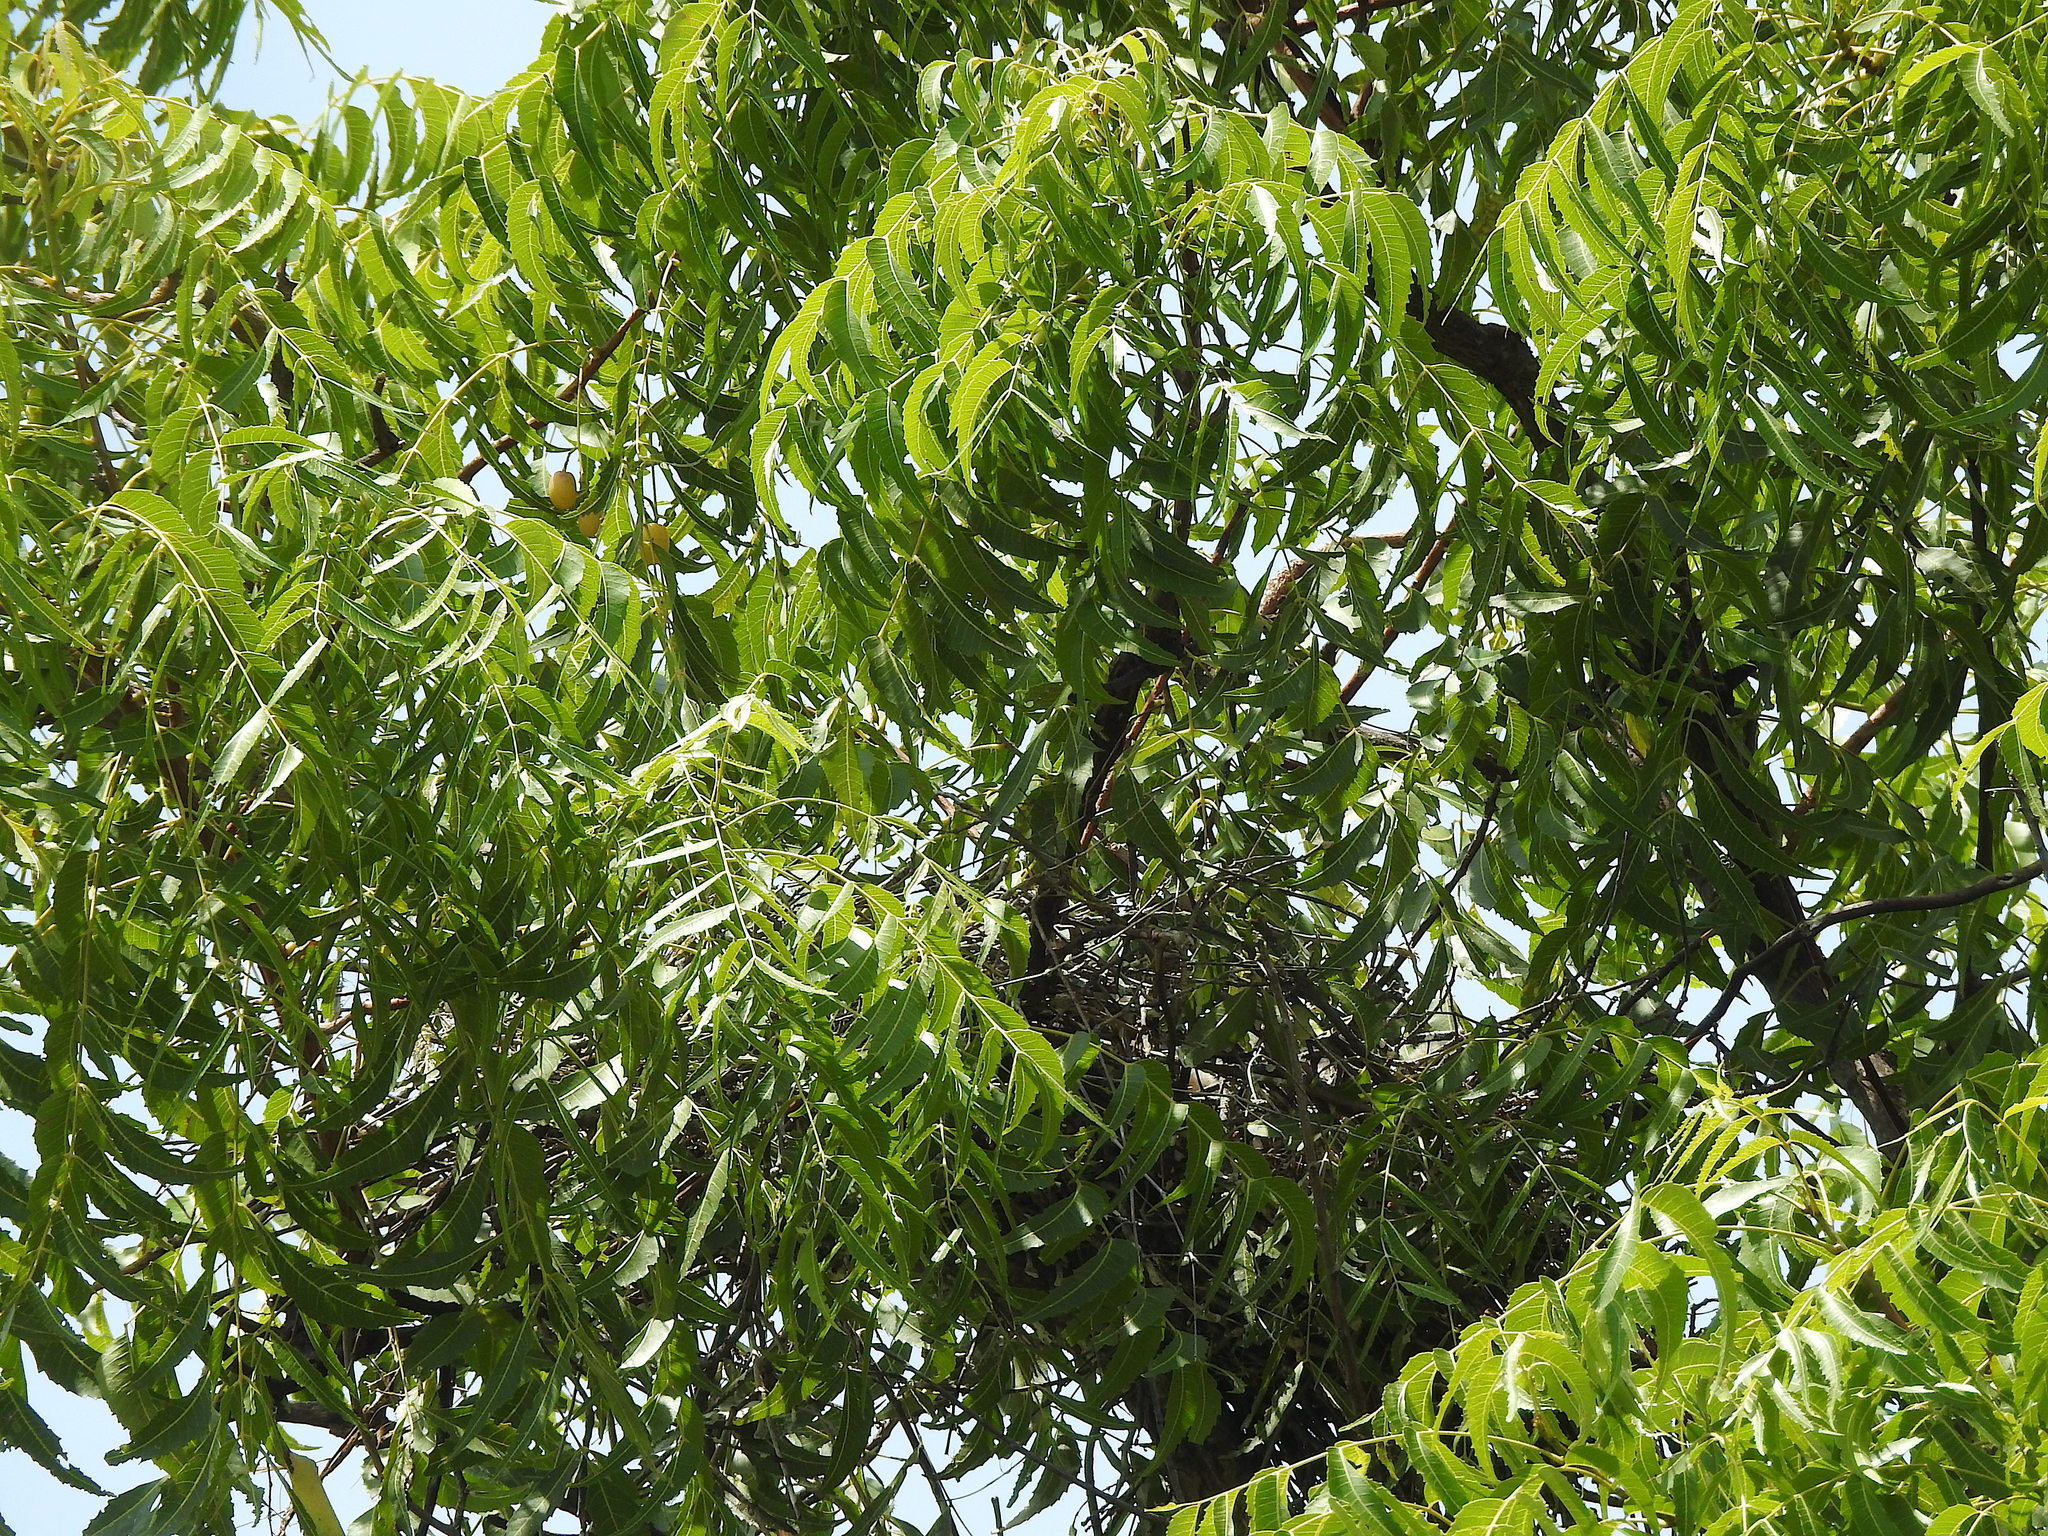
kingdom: Animalia
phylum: Chordata
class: Aves
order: Accipitriformes
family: Accipitridae
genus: Elanus
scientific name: Elanus caeruleus
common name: Black-winged kite
